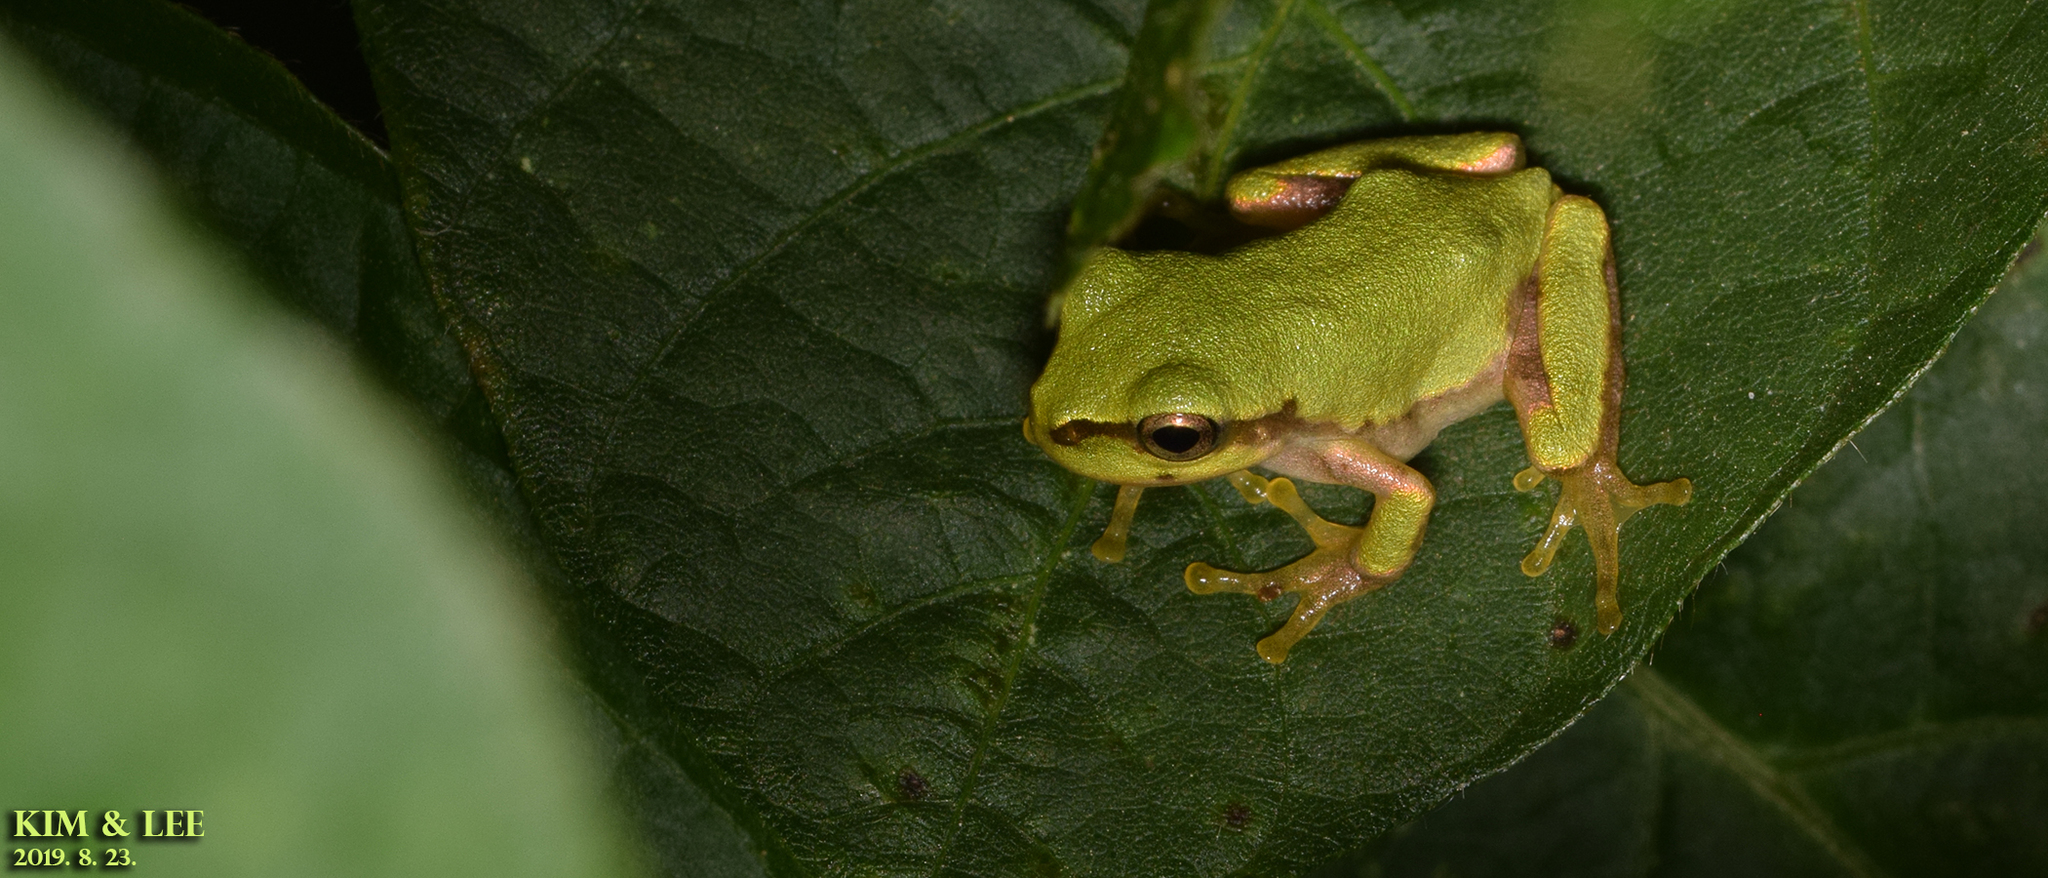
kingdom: Animalia
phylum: Chordata
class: Amphibia
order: Anura
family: Hylidae
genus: Dryophytes
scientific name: Dryophytes japonicus
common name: Japanese treefrog
